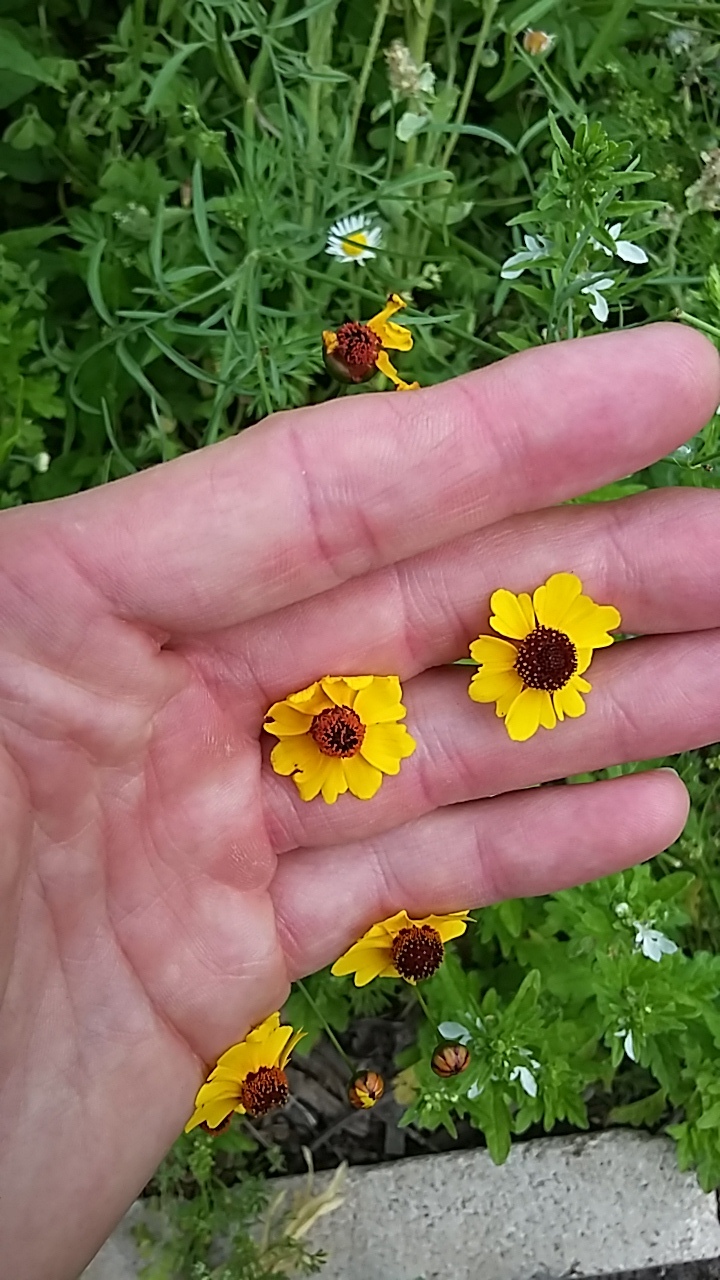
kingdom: Plantae
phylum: Tracheophyta
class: Magnoliopsida
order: Asterales
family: Asteraceae
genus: Coreopsis
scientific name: Coreopsis tinctoria
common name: Garden tickseed
